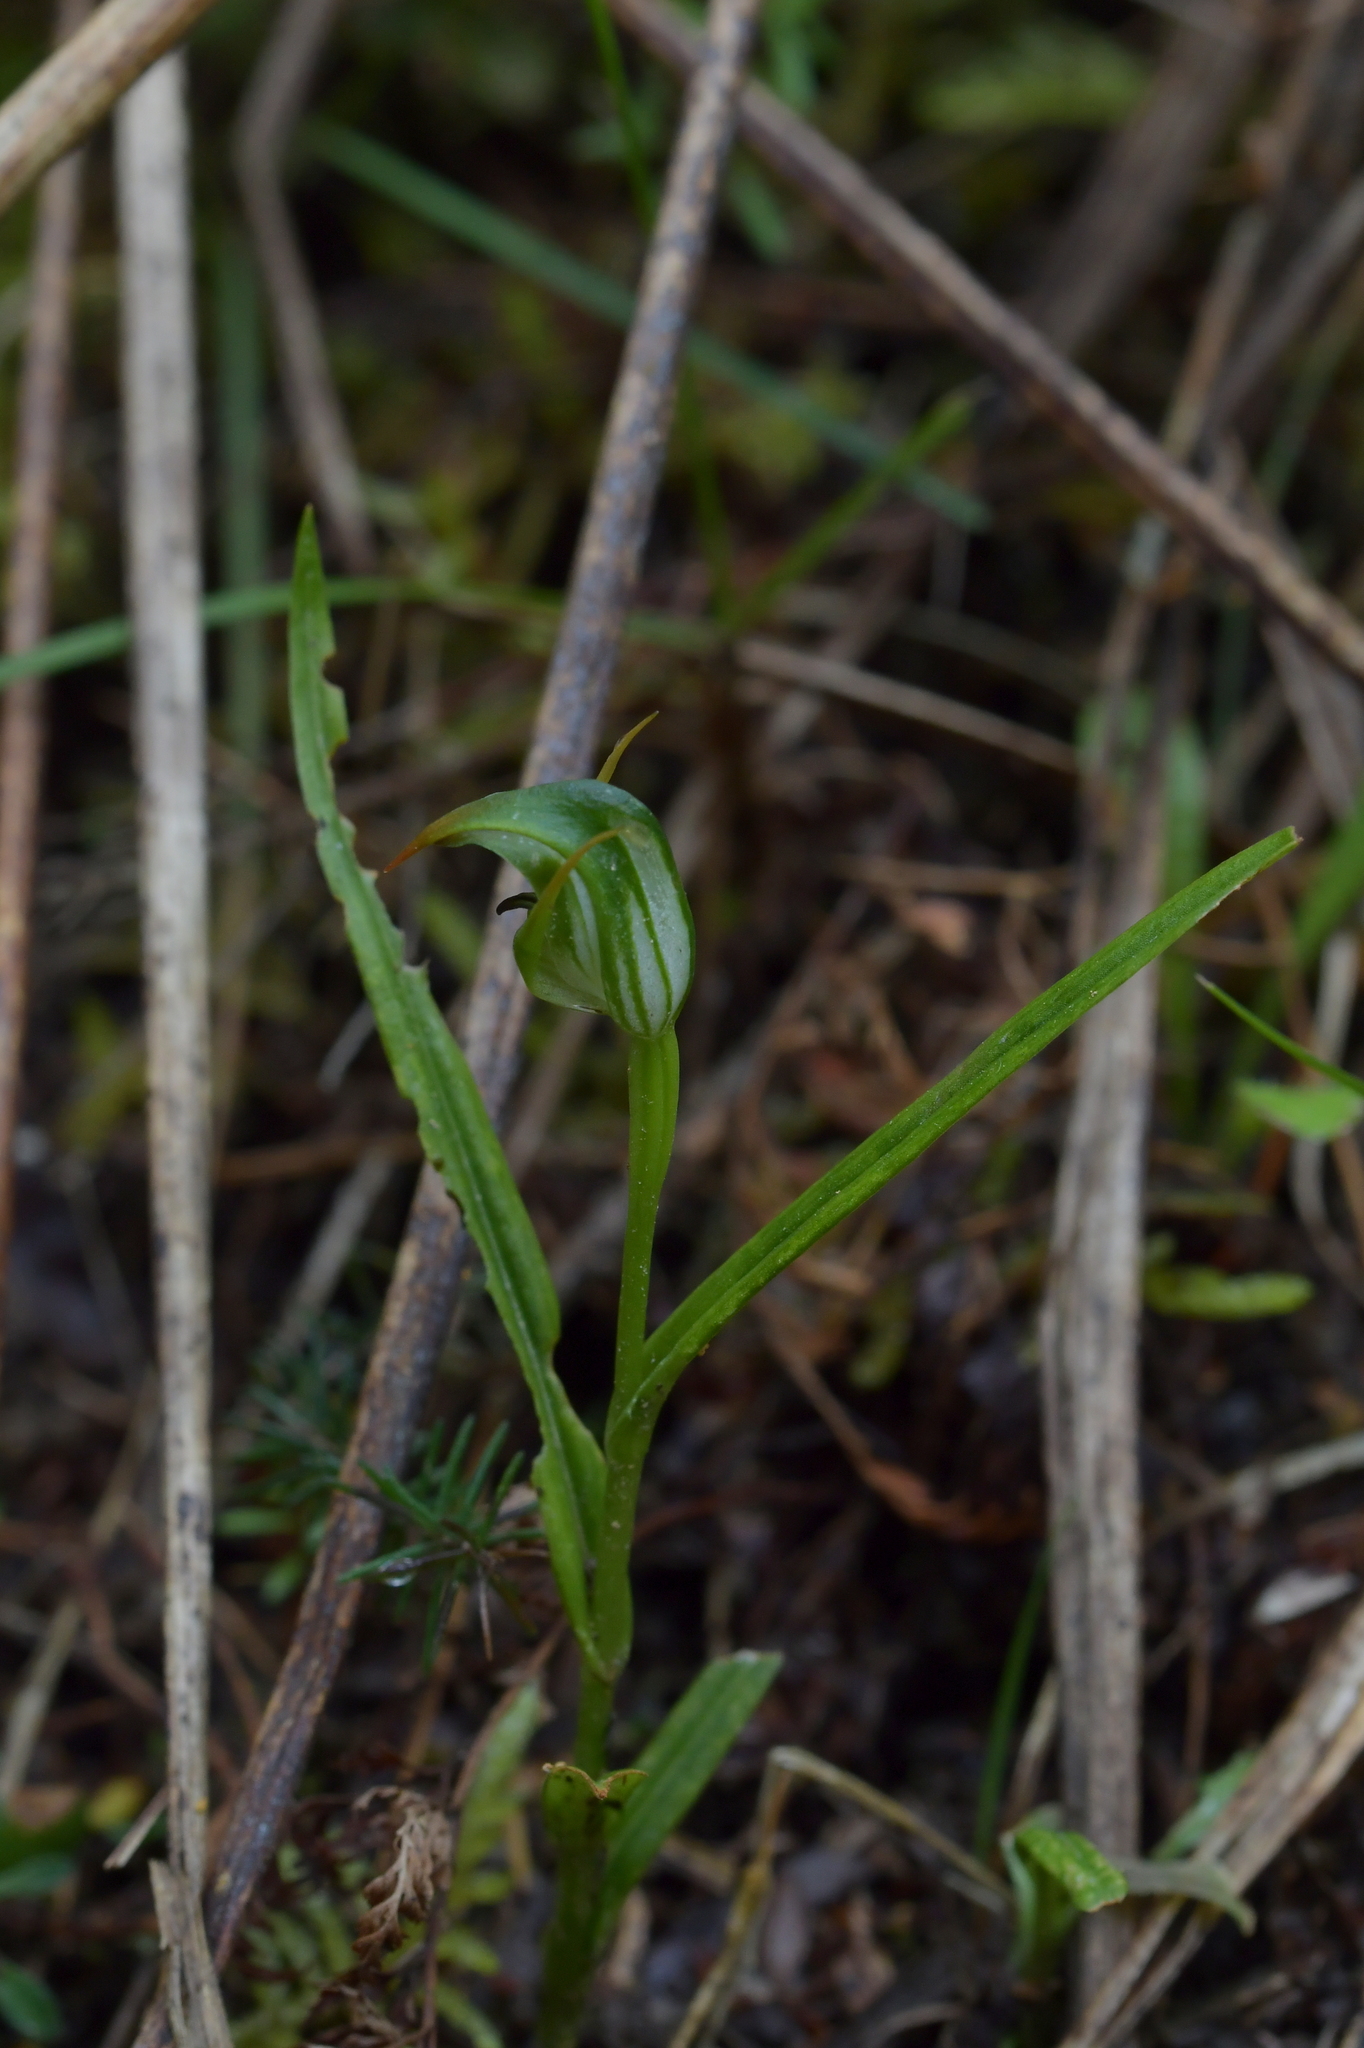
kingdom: Plantae
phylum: Tracheophyta
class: Liliopsida
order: Asparagales
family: Orchidaceae
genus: Pterostylis
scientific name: Pterostylis graminea
